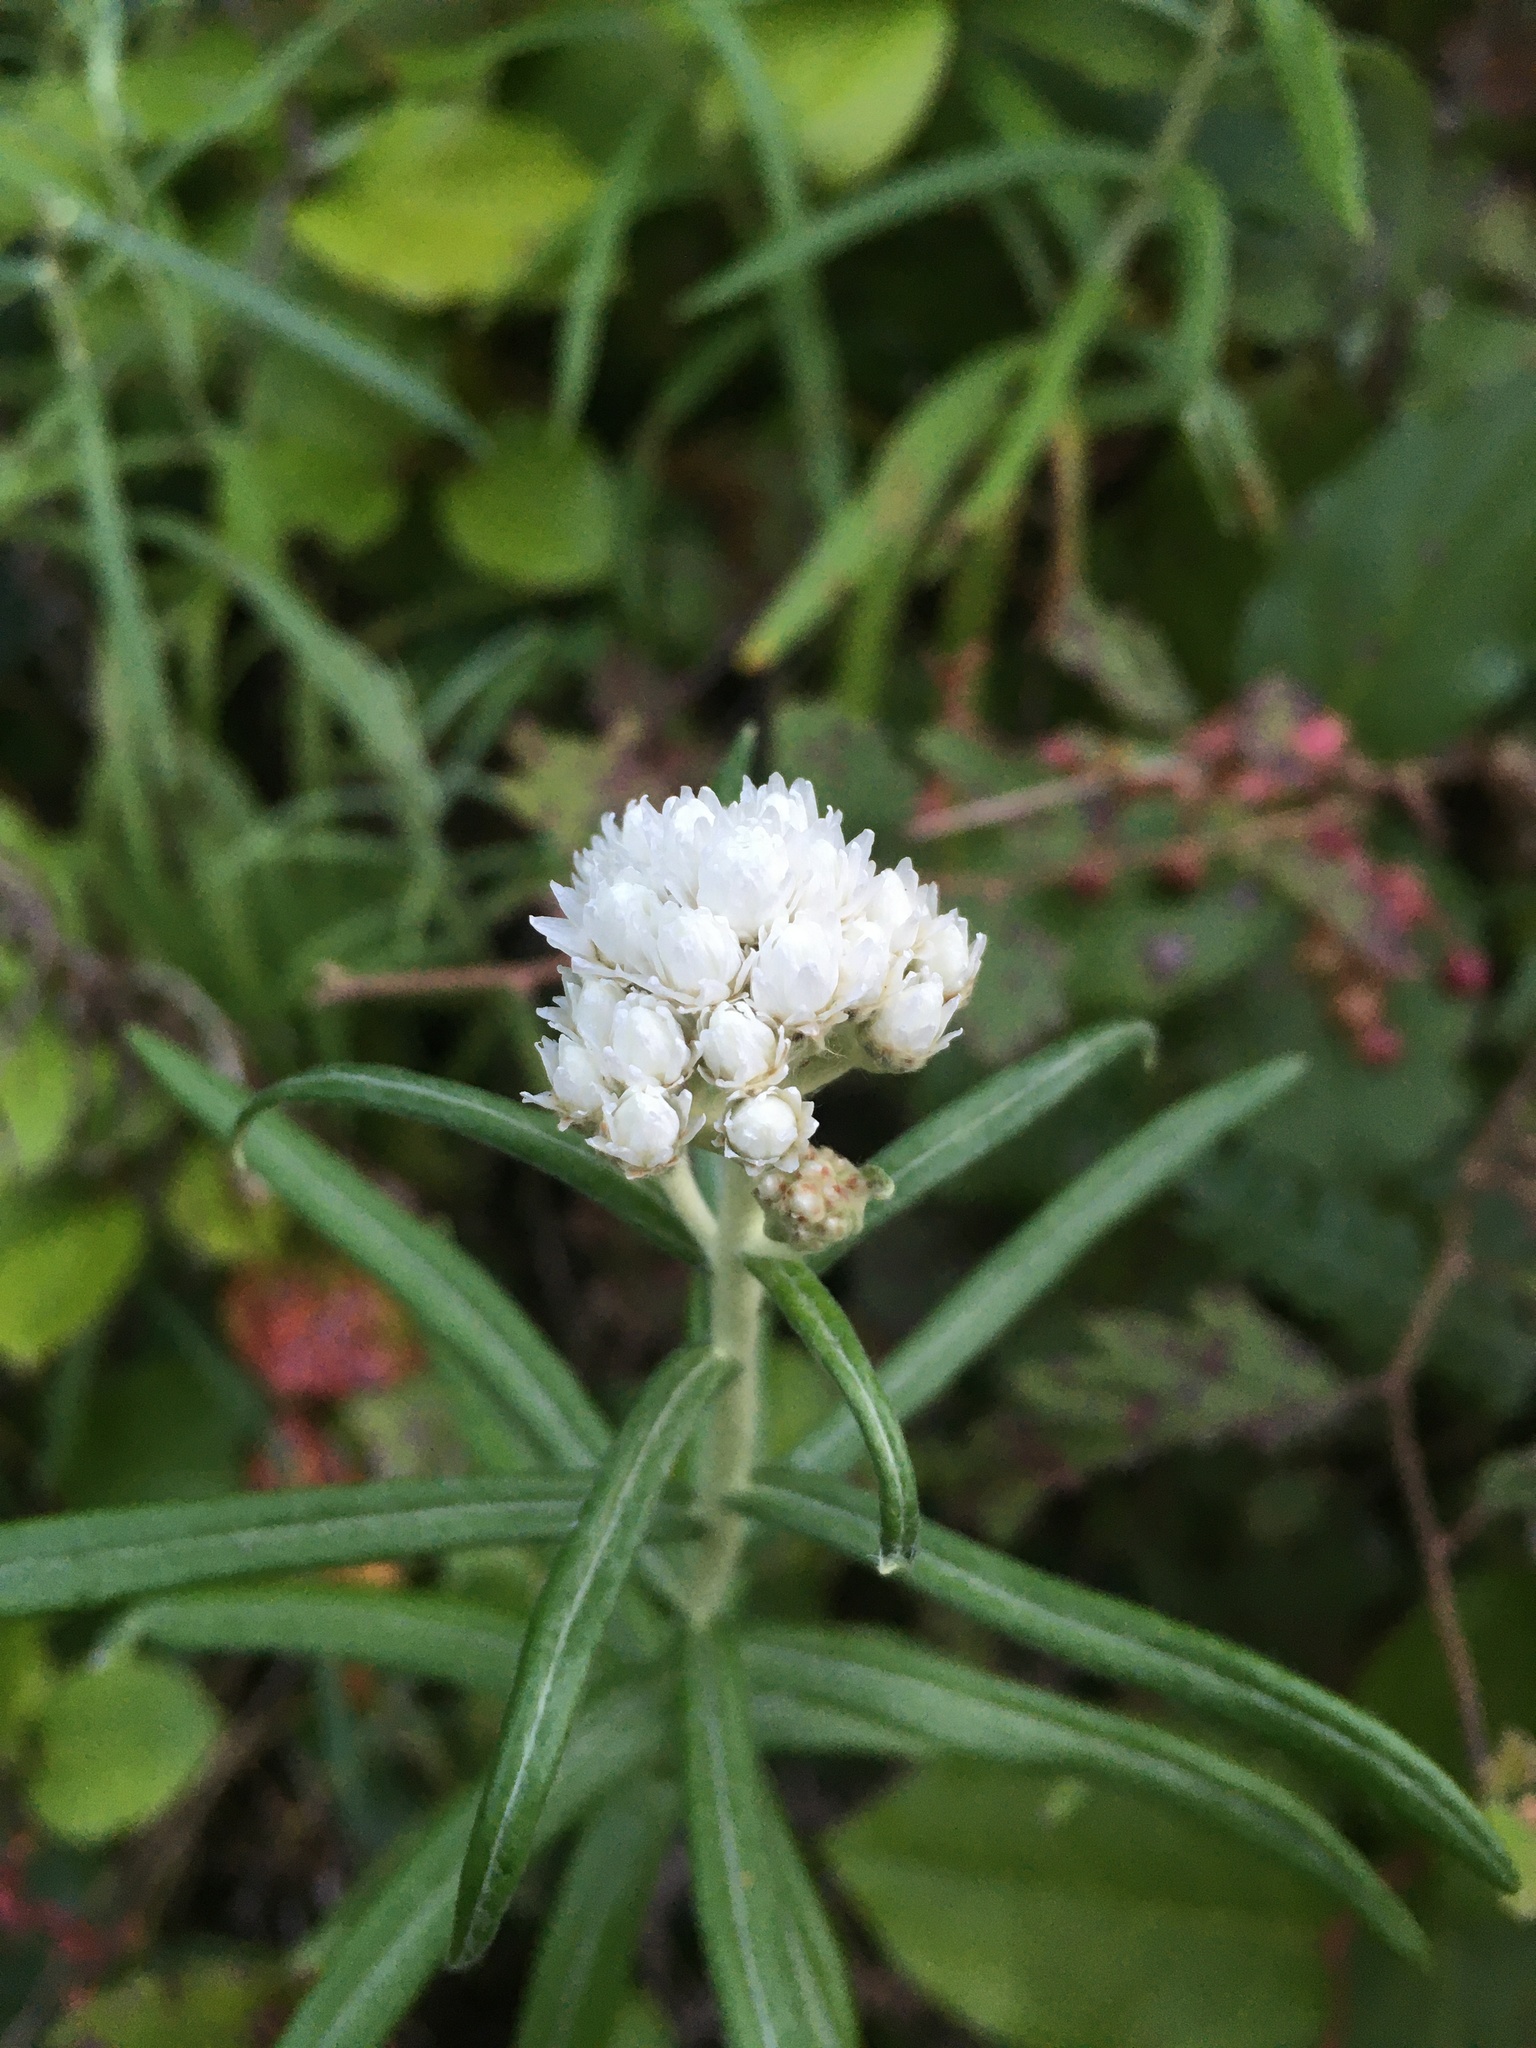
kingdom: Plantae
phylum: Tracheophyta
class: Magnoliopsida
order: Asterales
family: Asteraceae
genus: Anaphalis
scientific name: Anaphalis margaritacea
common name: Pearly everlasting
